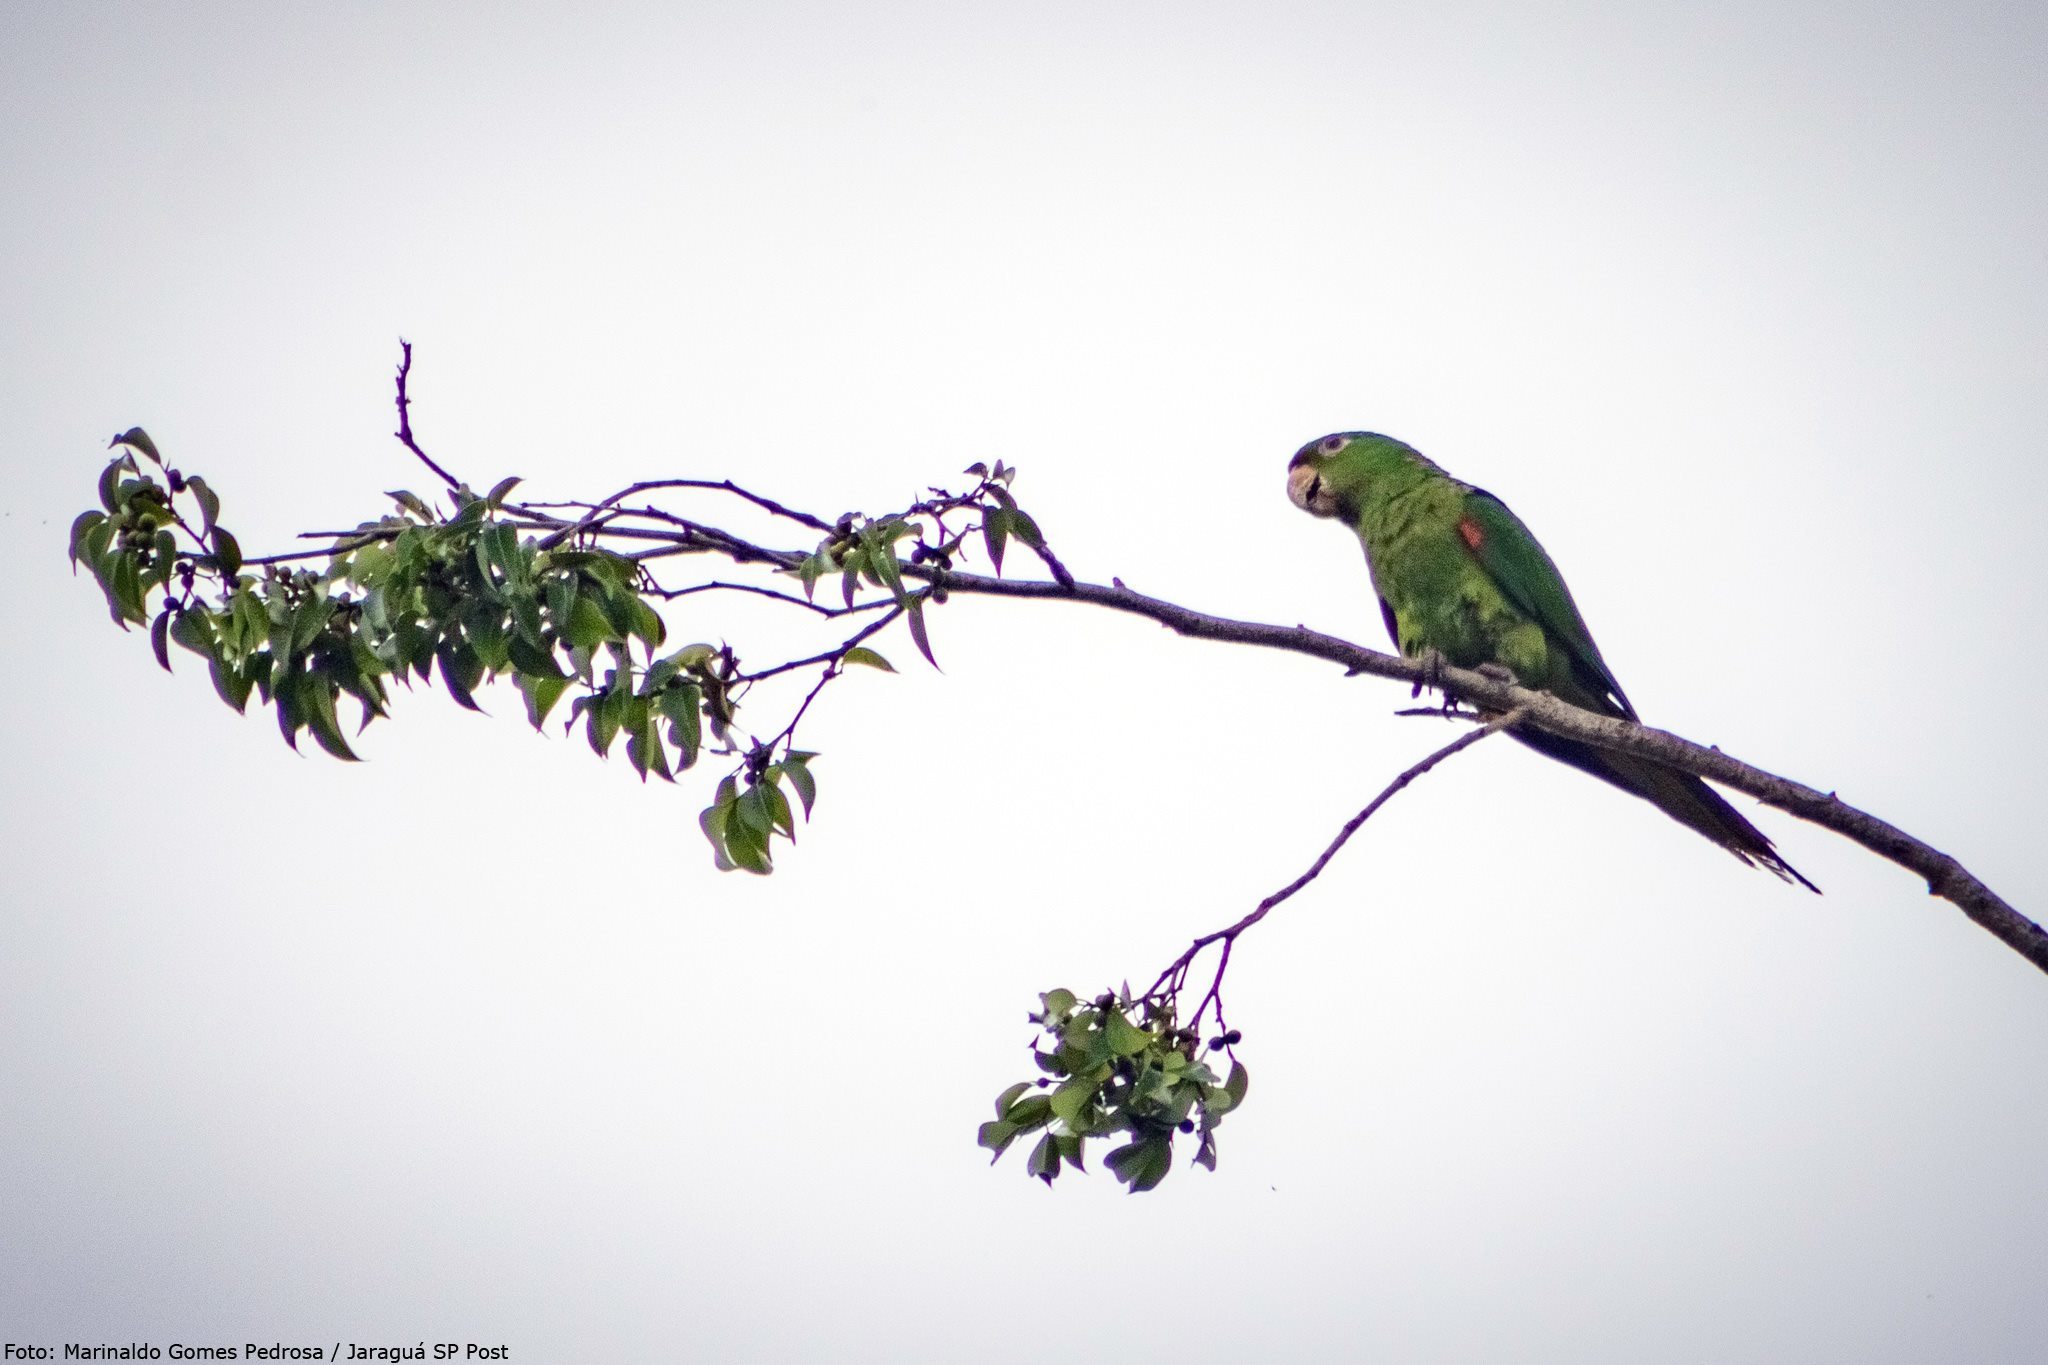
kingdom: Animalia
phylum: Chordata
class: Aves
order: Psittaciformes
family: Psittacidae
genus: Aratinga
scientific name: Aratinga leucophthalma
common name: White-eyed parakeet
